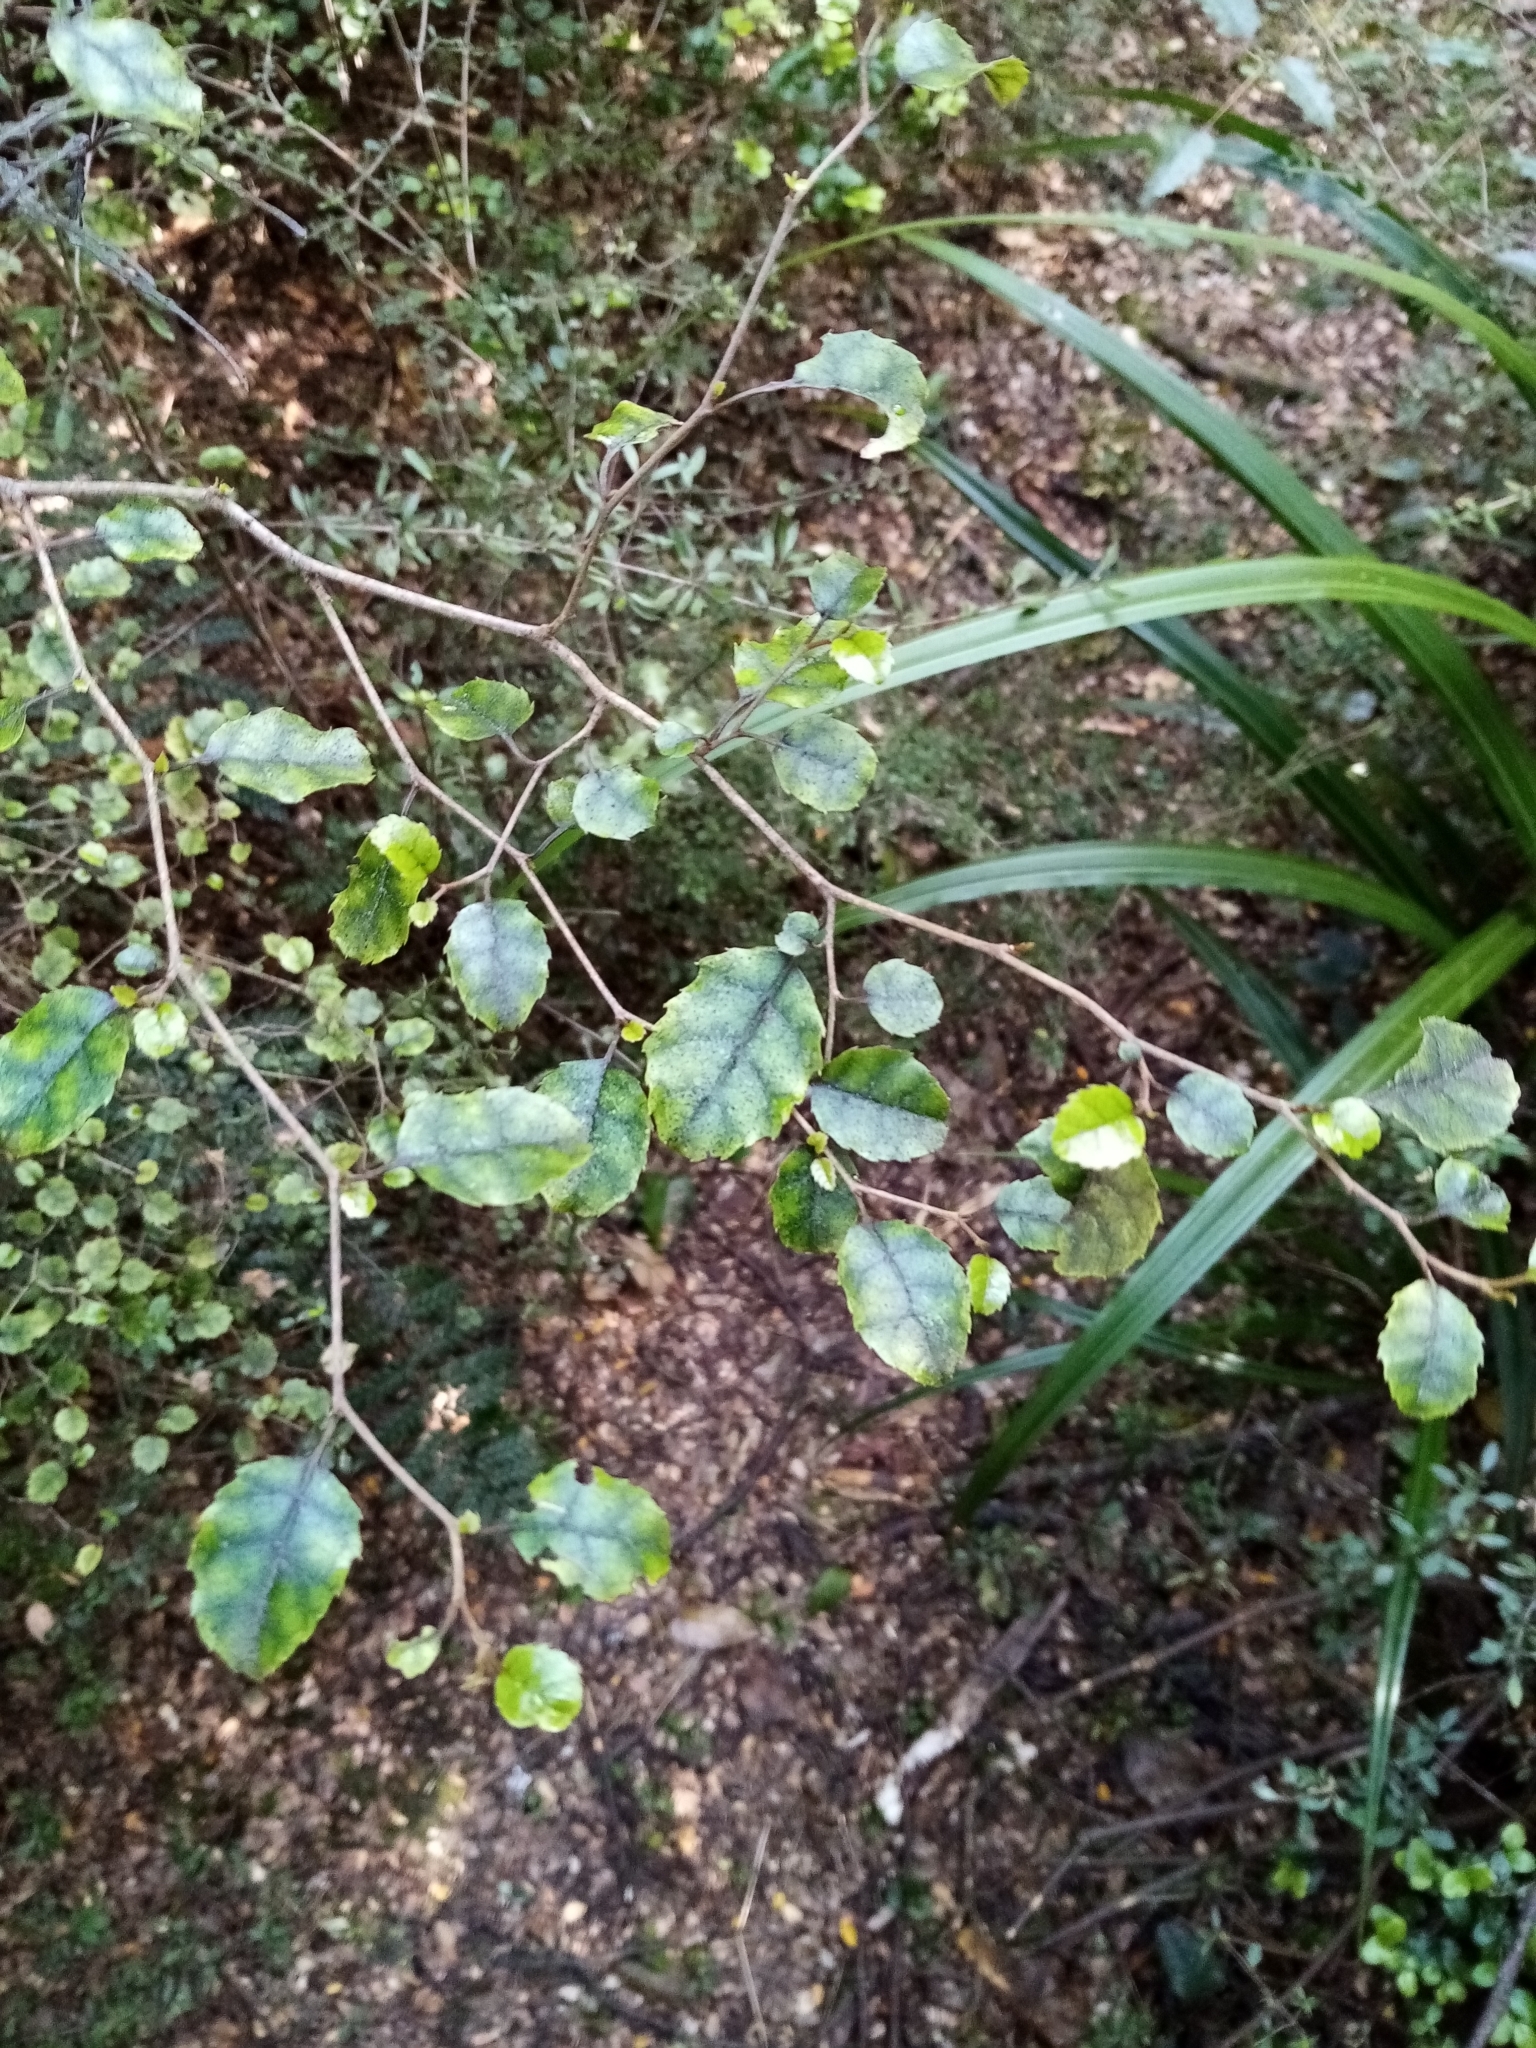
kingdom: Plantae
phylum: Tracheophyta
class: Magnoliopsida
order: Asterales
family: Rousseaceae
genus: Carpodetus
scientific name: Carpodetus serratus
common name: White mapau
